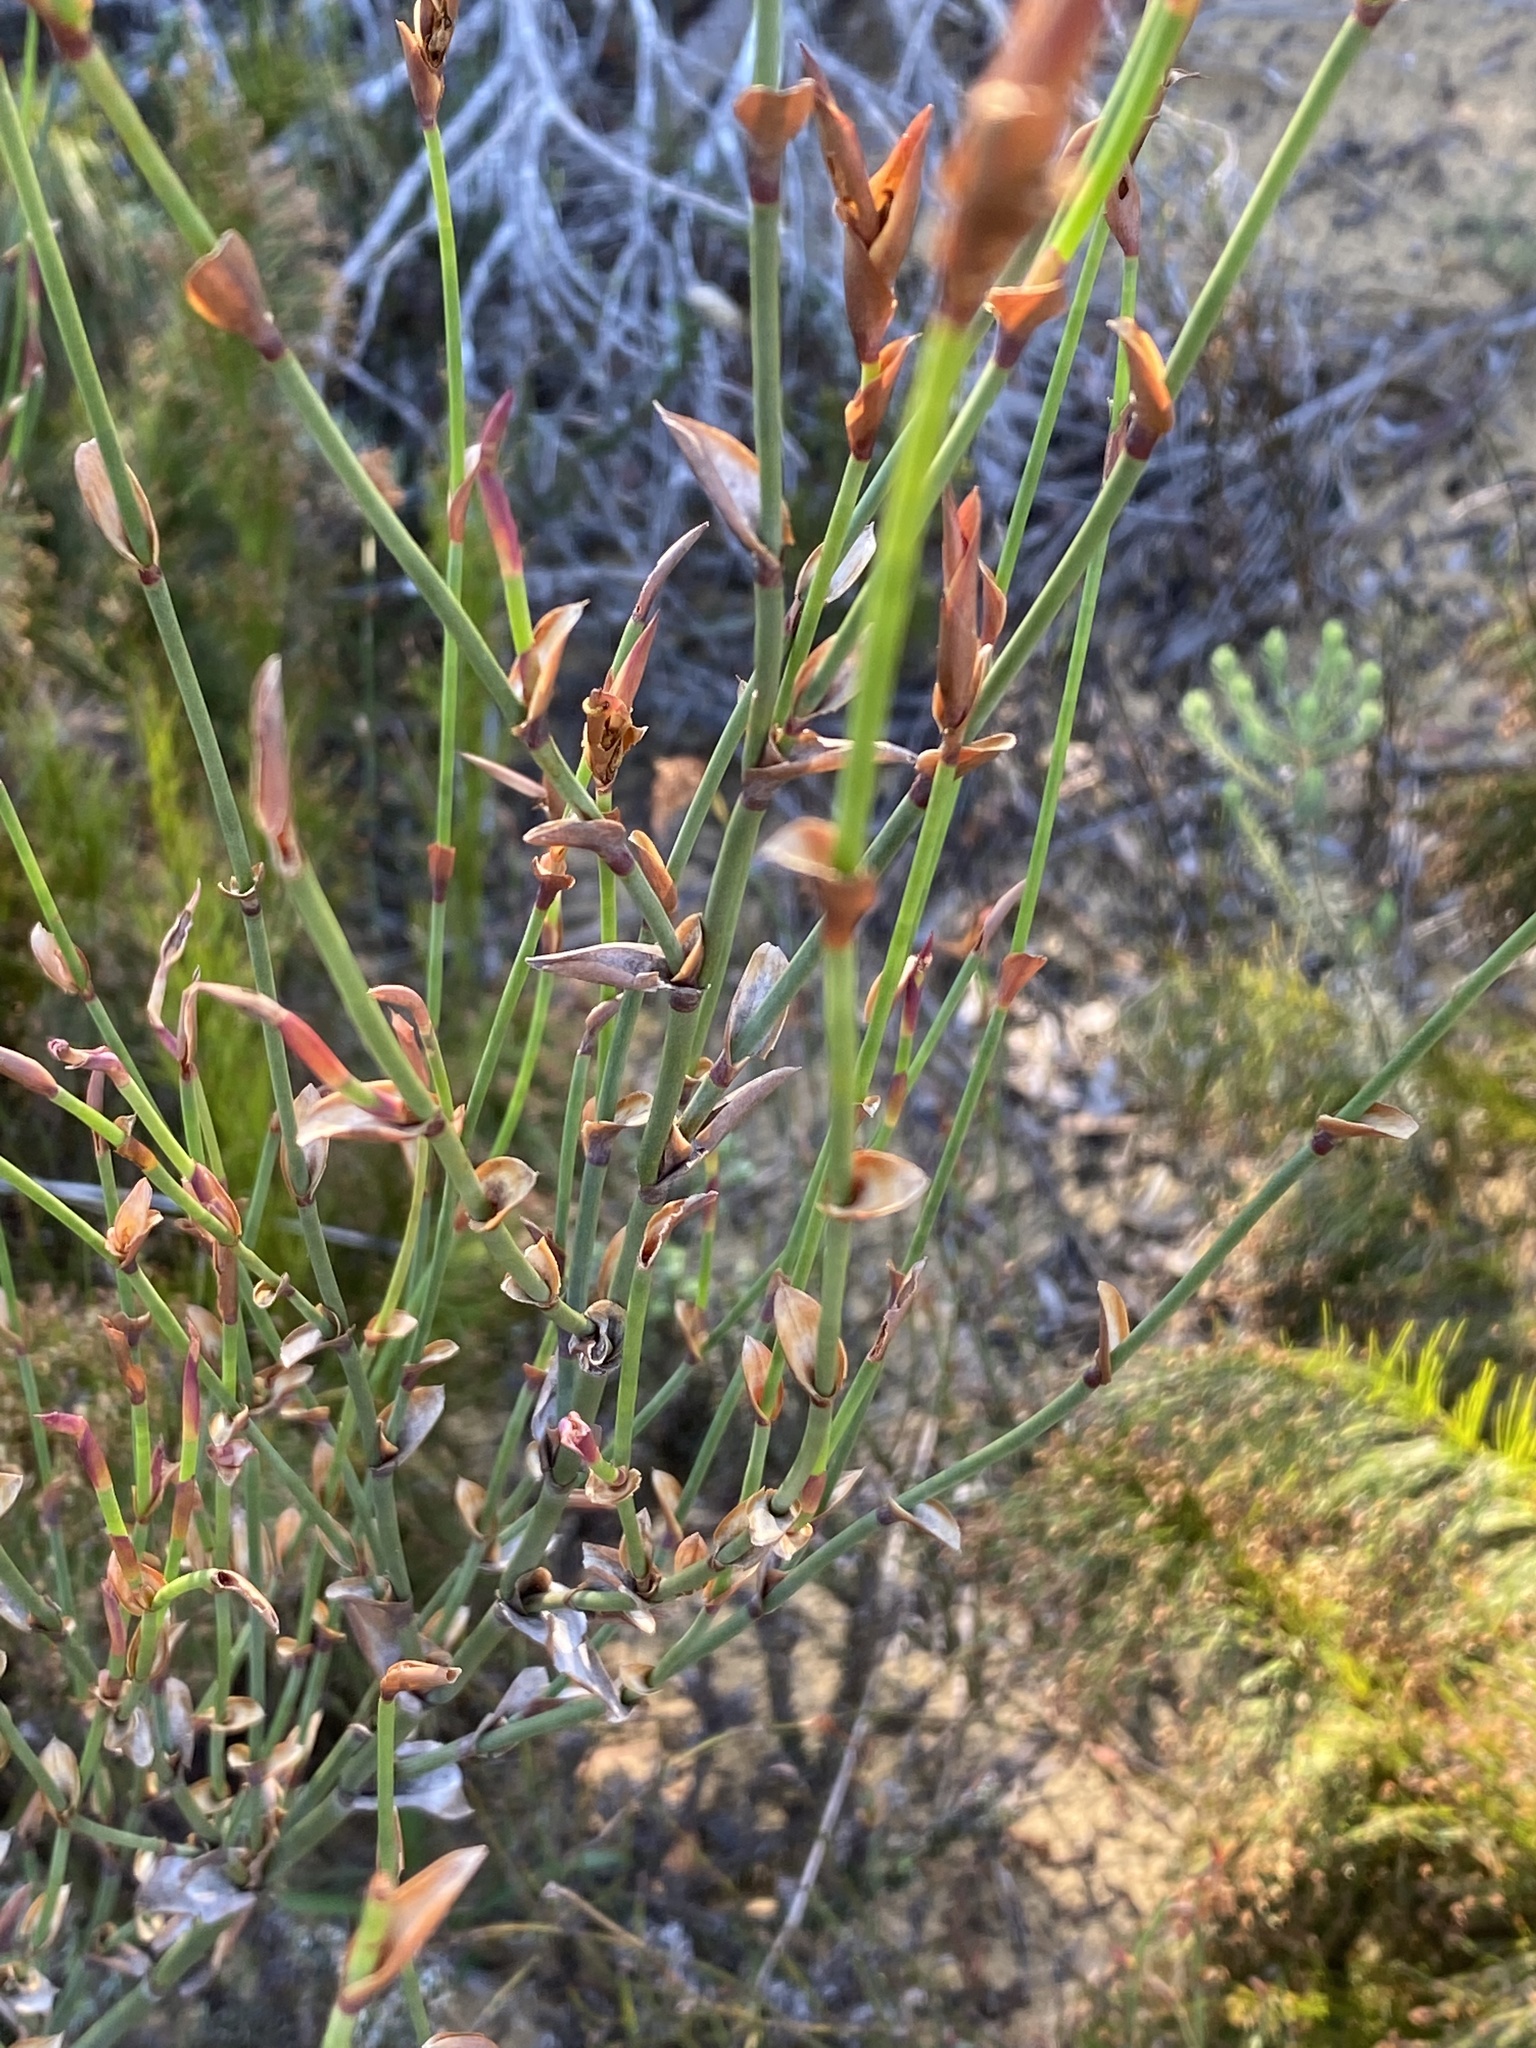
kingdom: Plantae
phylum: Tracheophyta
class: Liliopsida
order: Poales
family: Restionaceae
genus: Elegia
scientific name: Elegia muirii
